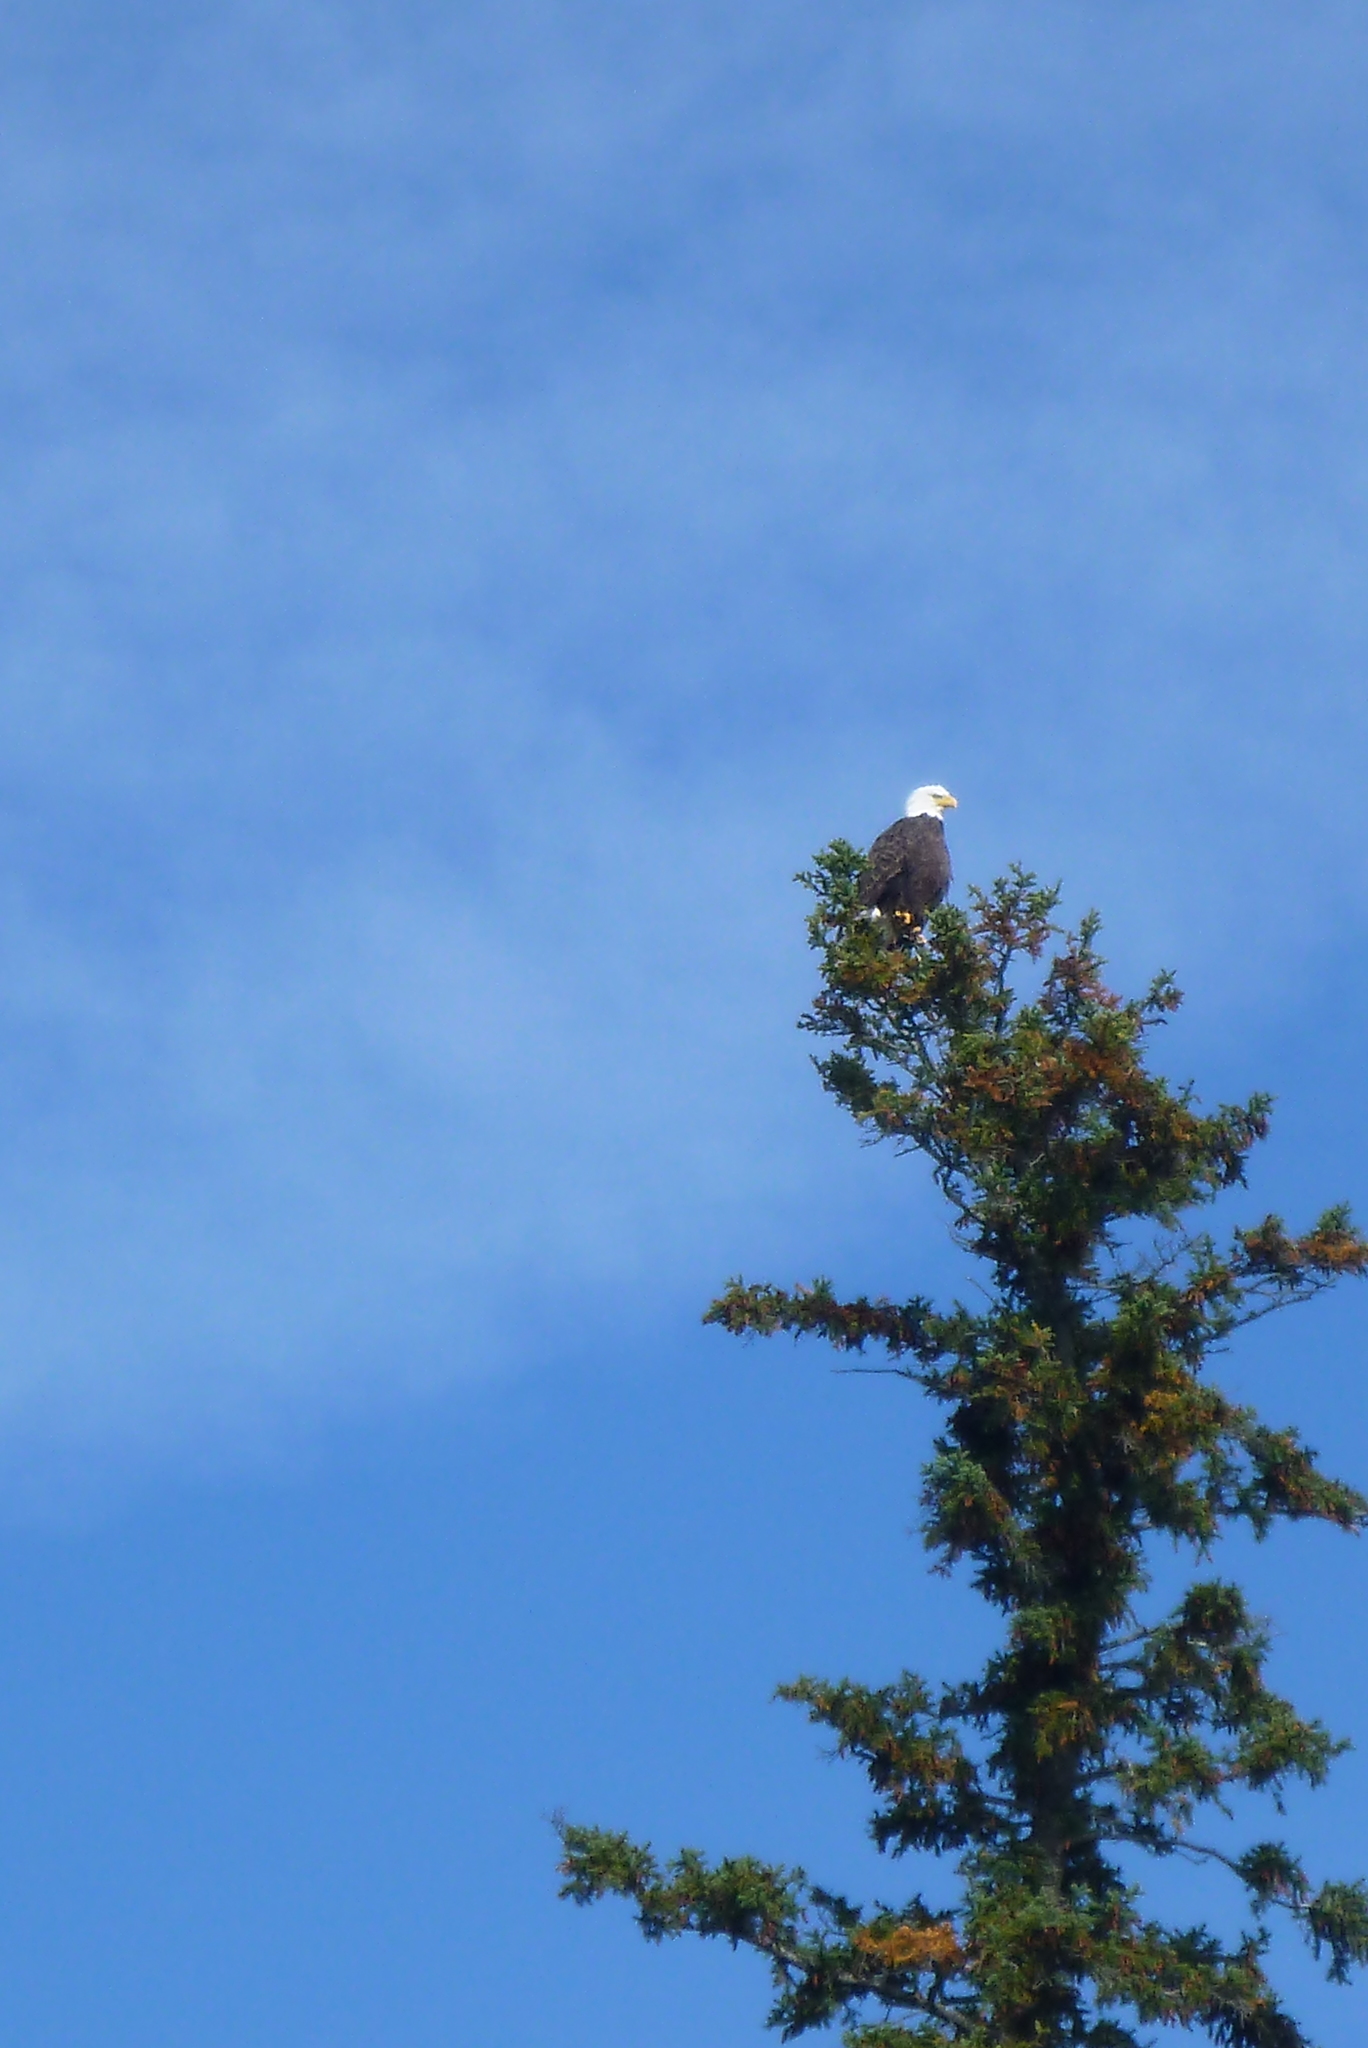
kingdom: Animalia
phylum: Chordata
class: Aves
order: Accipitriformes
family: Accipitridae
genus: Haliaeetus
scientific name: Haliaeetus leucocephalus
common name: Bald eagle
